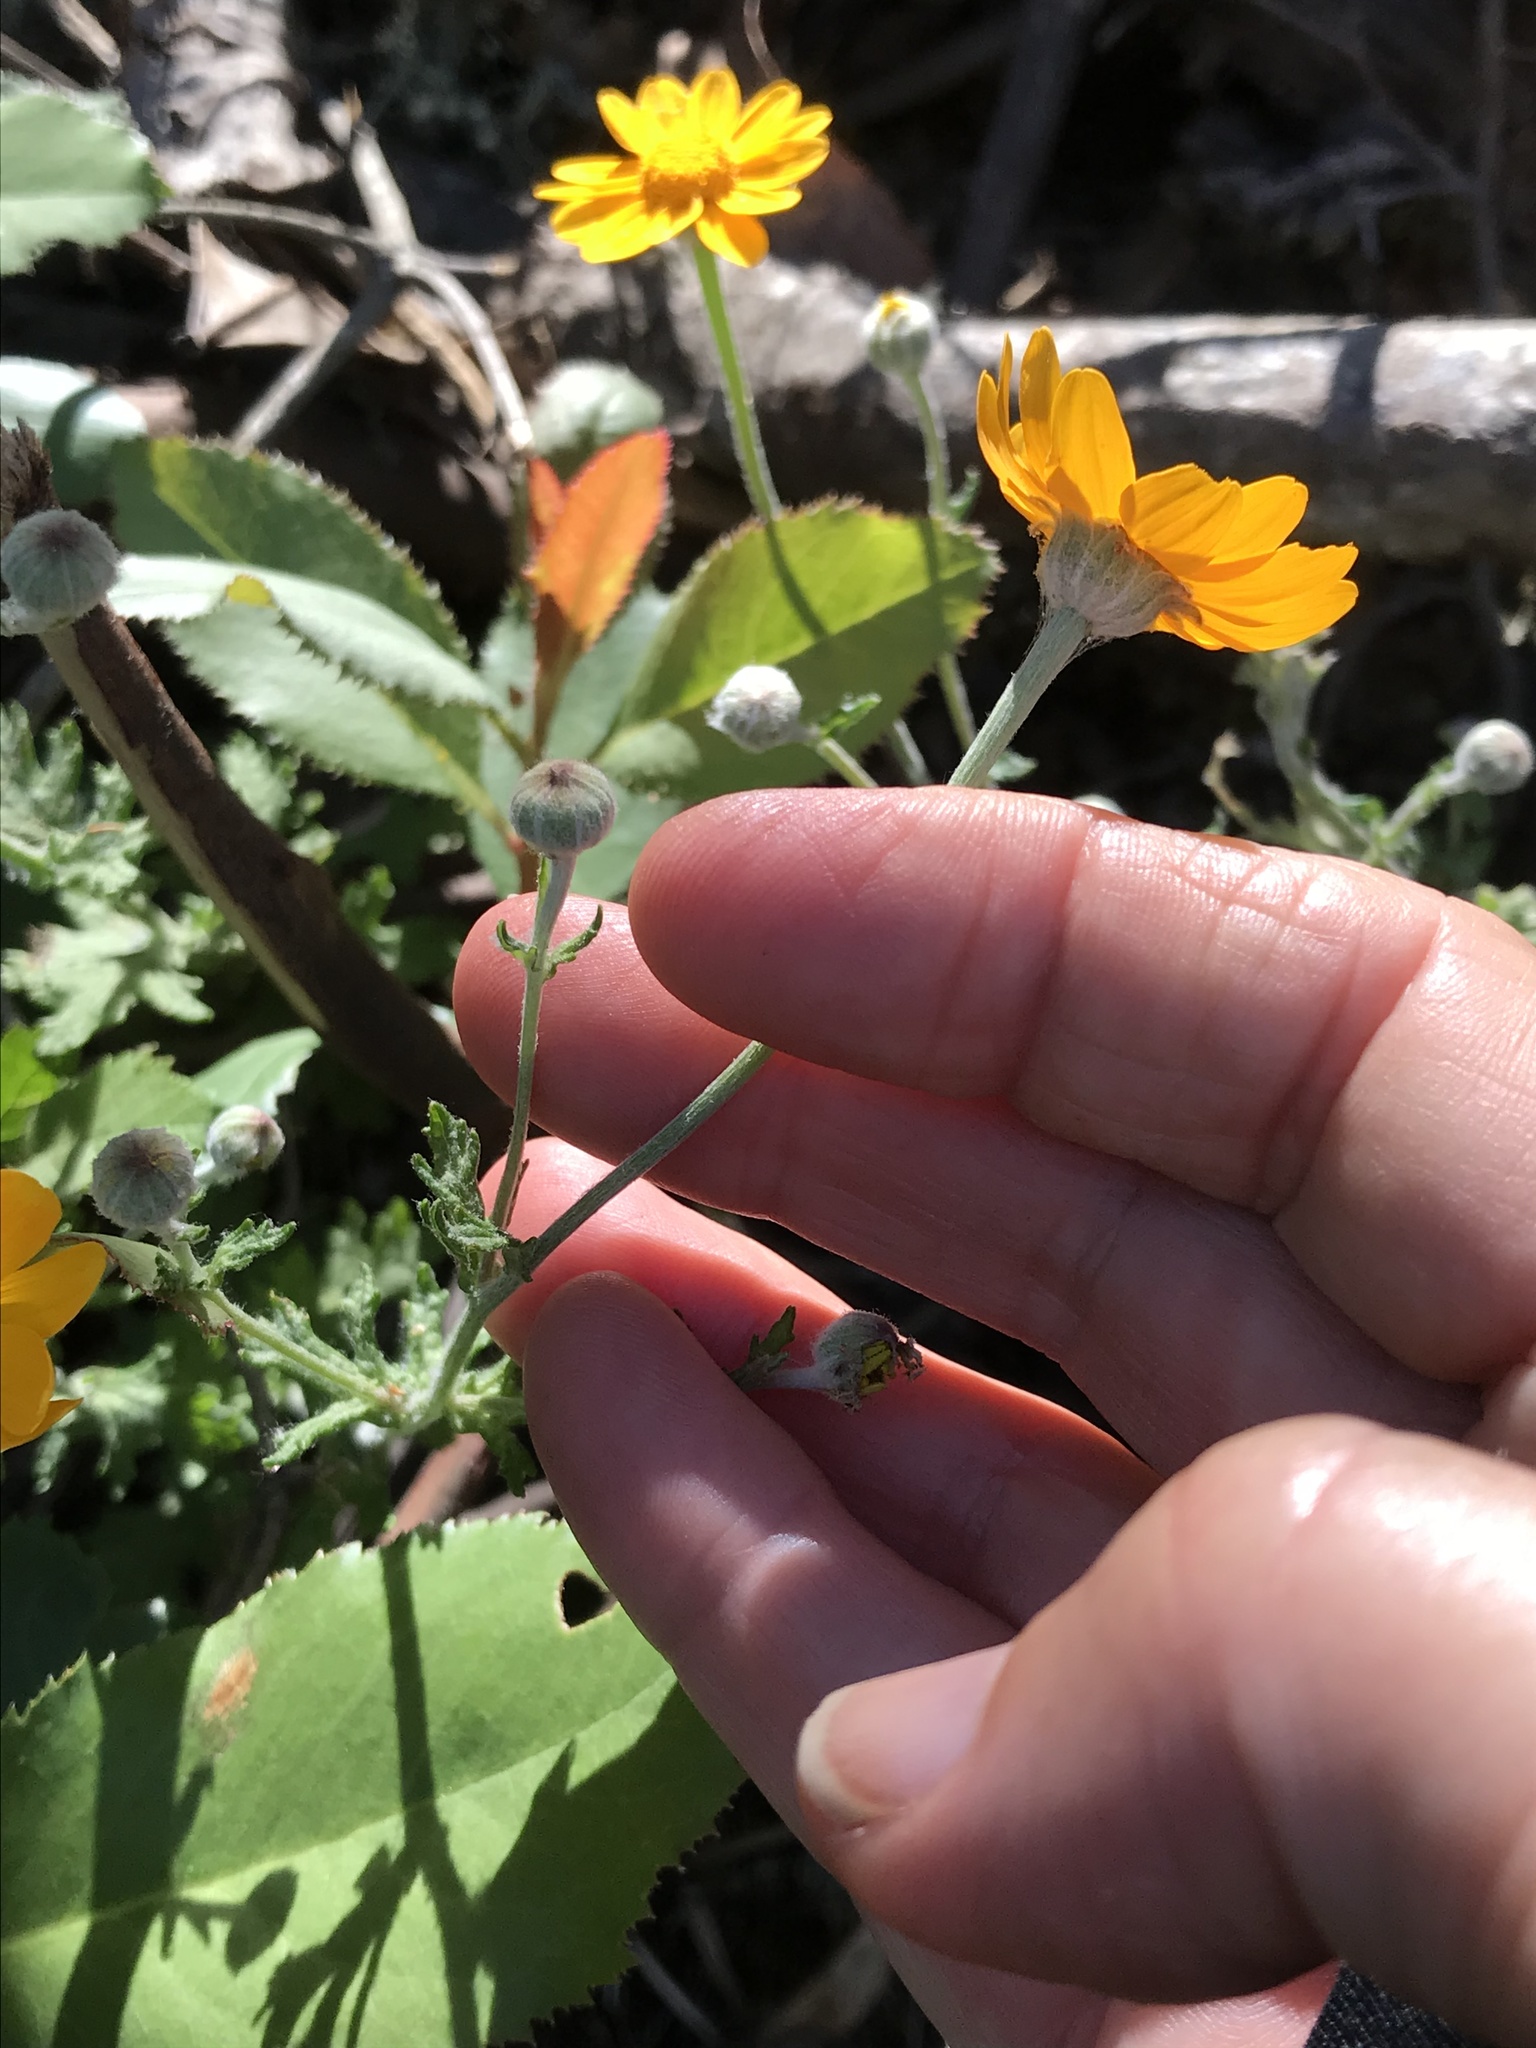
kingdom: Plantae
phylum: Tracheophyta
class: Magnoliopsida
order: Asterales
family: Asteraceae
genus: Eriophyllum
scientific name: Eriophyllum lanatum
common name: Common woolly-sunflower
